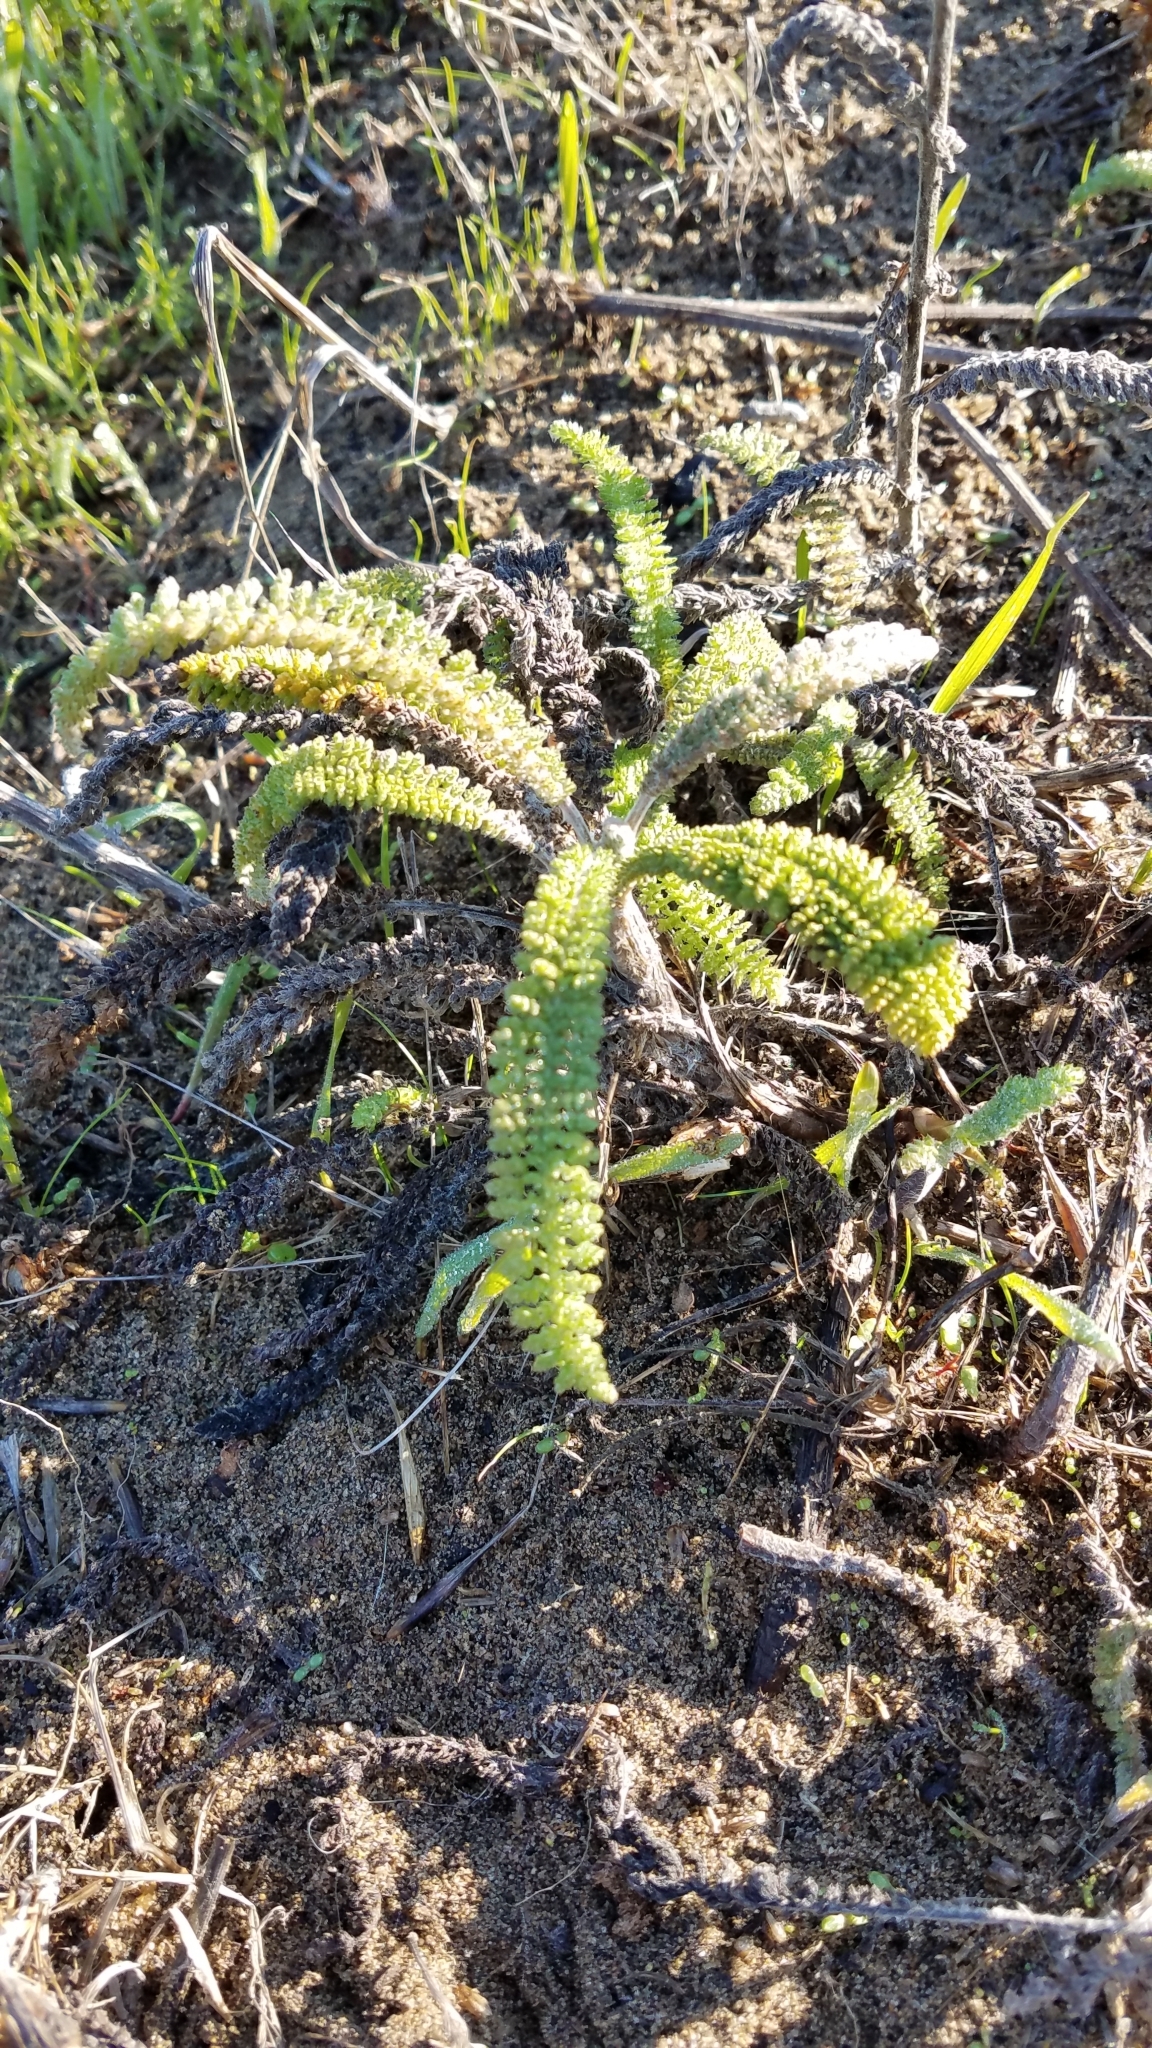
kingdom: Plantae
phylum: Tracheophyta
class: Magnoliopsida
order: Asterales
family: Asteraceae
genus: Achillea
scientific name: Achillea millefolium
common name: Yarrow
